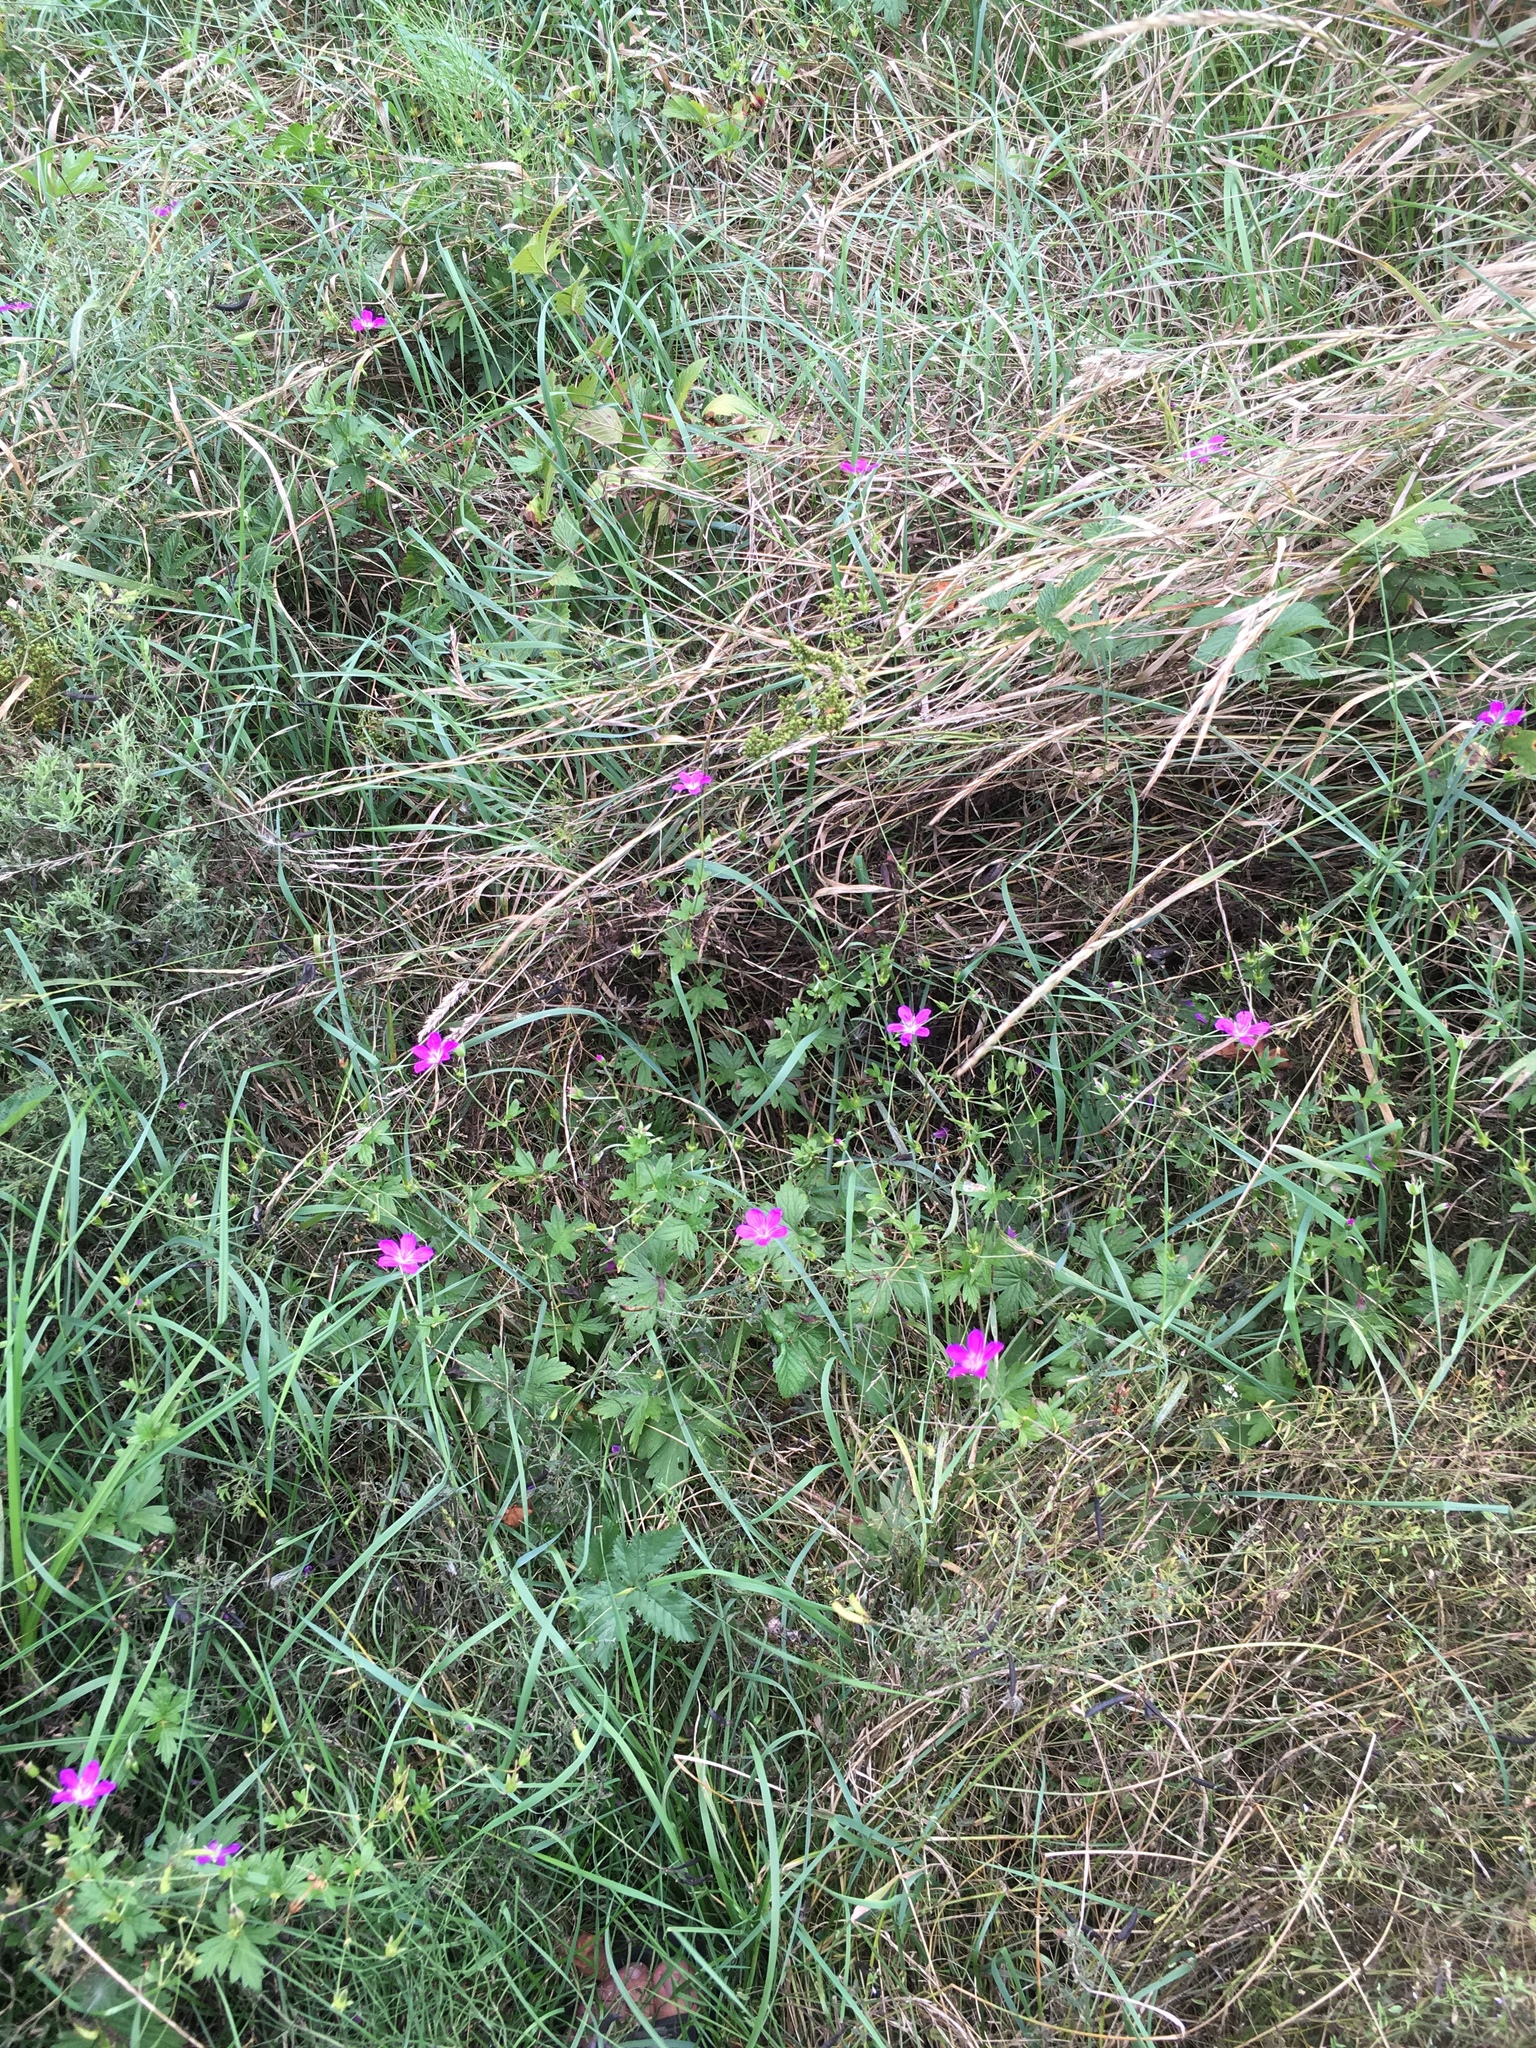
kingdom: Plantae
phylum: Tracheophyta
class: Magnoliopsida
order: Geraniales
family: Geraniaceae
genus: Geranium
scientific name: Geranium palustre
